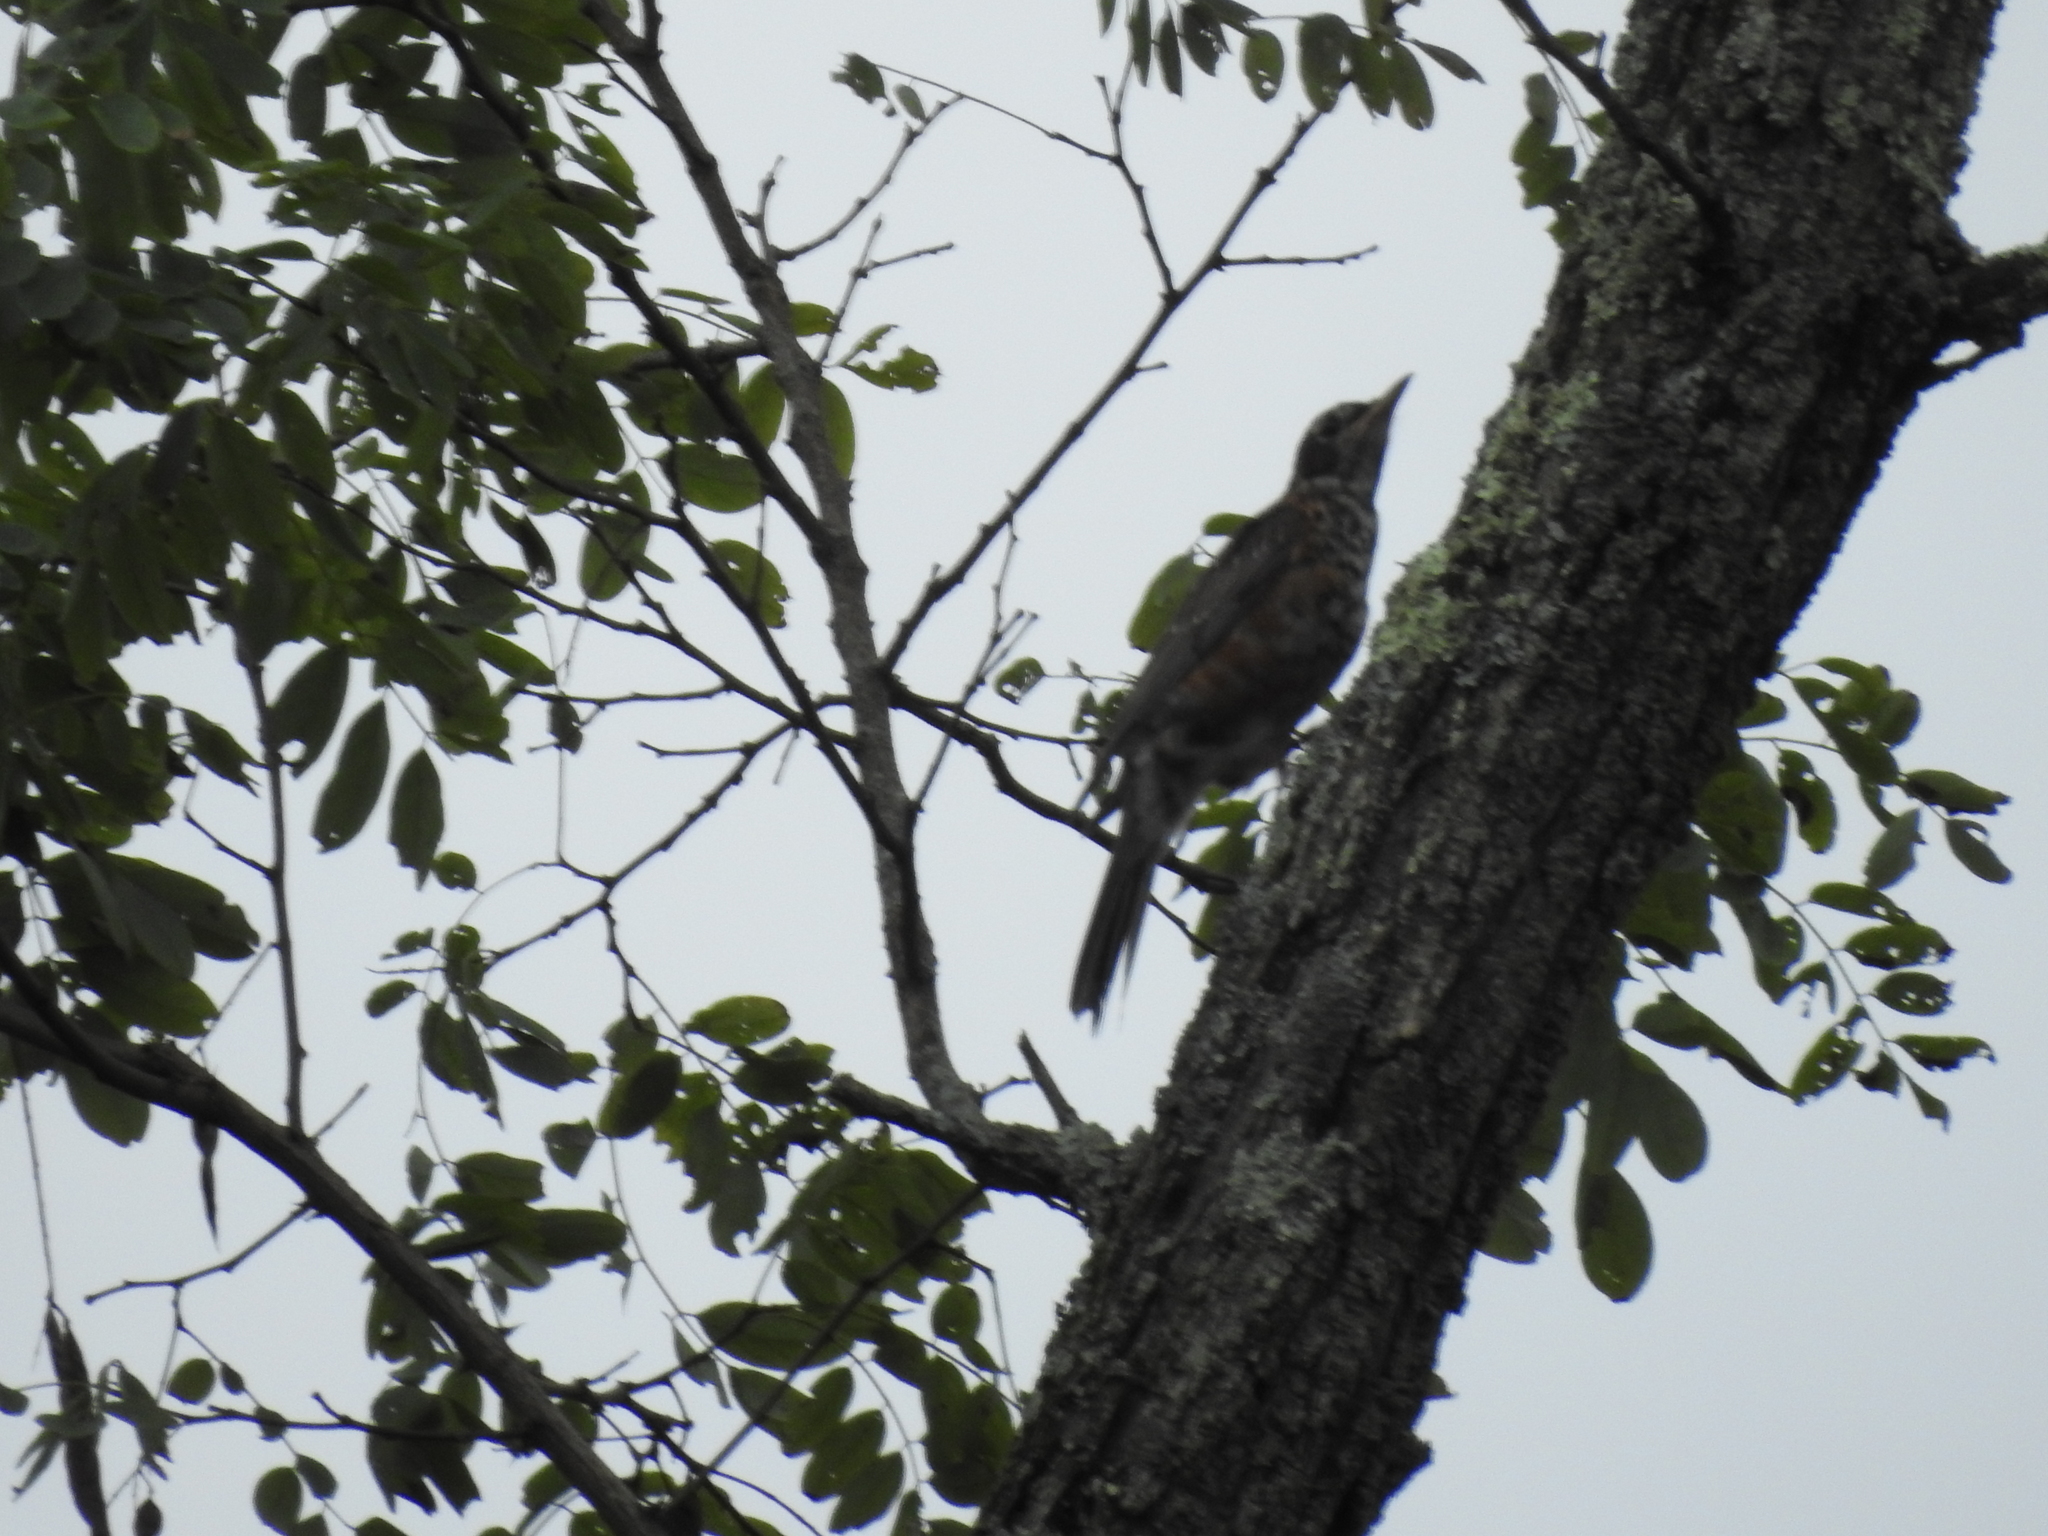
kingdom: Animalia
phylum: Chordata
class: Aves
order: Passeriformes
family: Turdidae
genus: Turdus
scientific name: Turdus migratorius
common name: American robin
